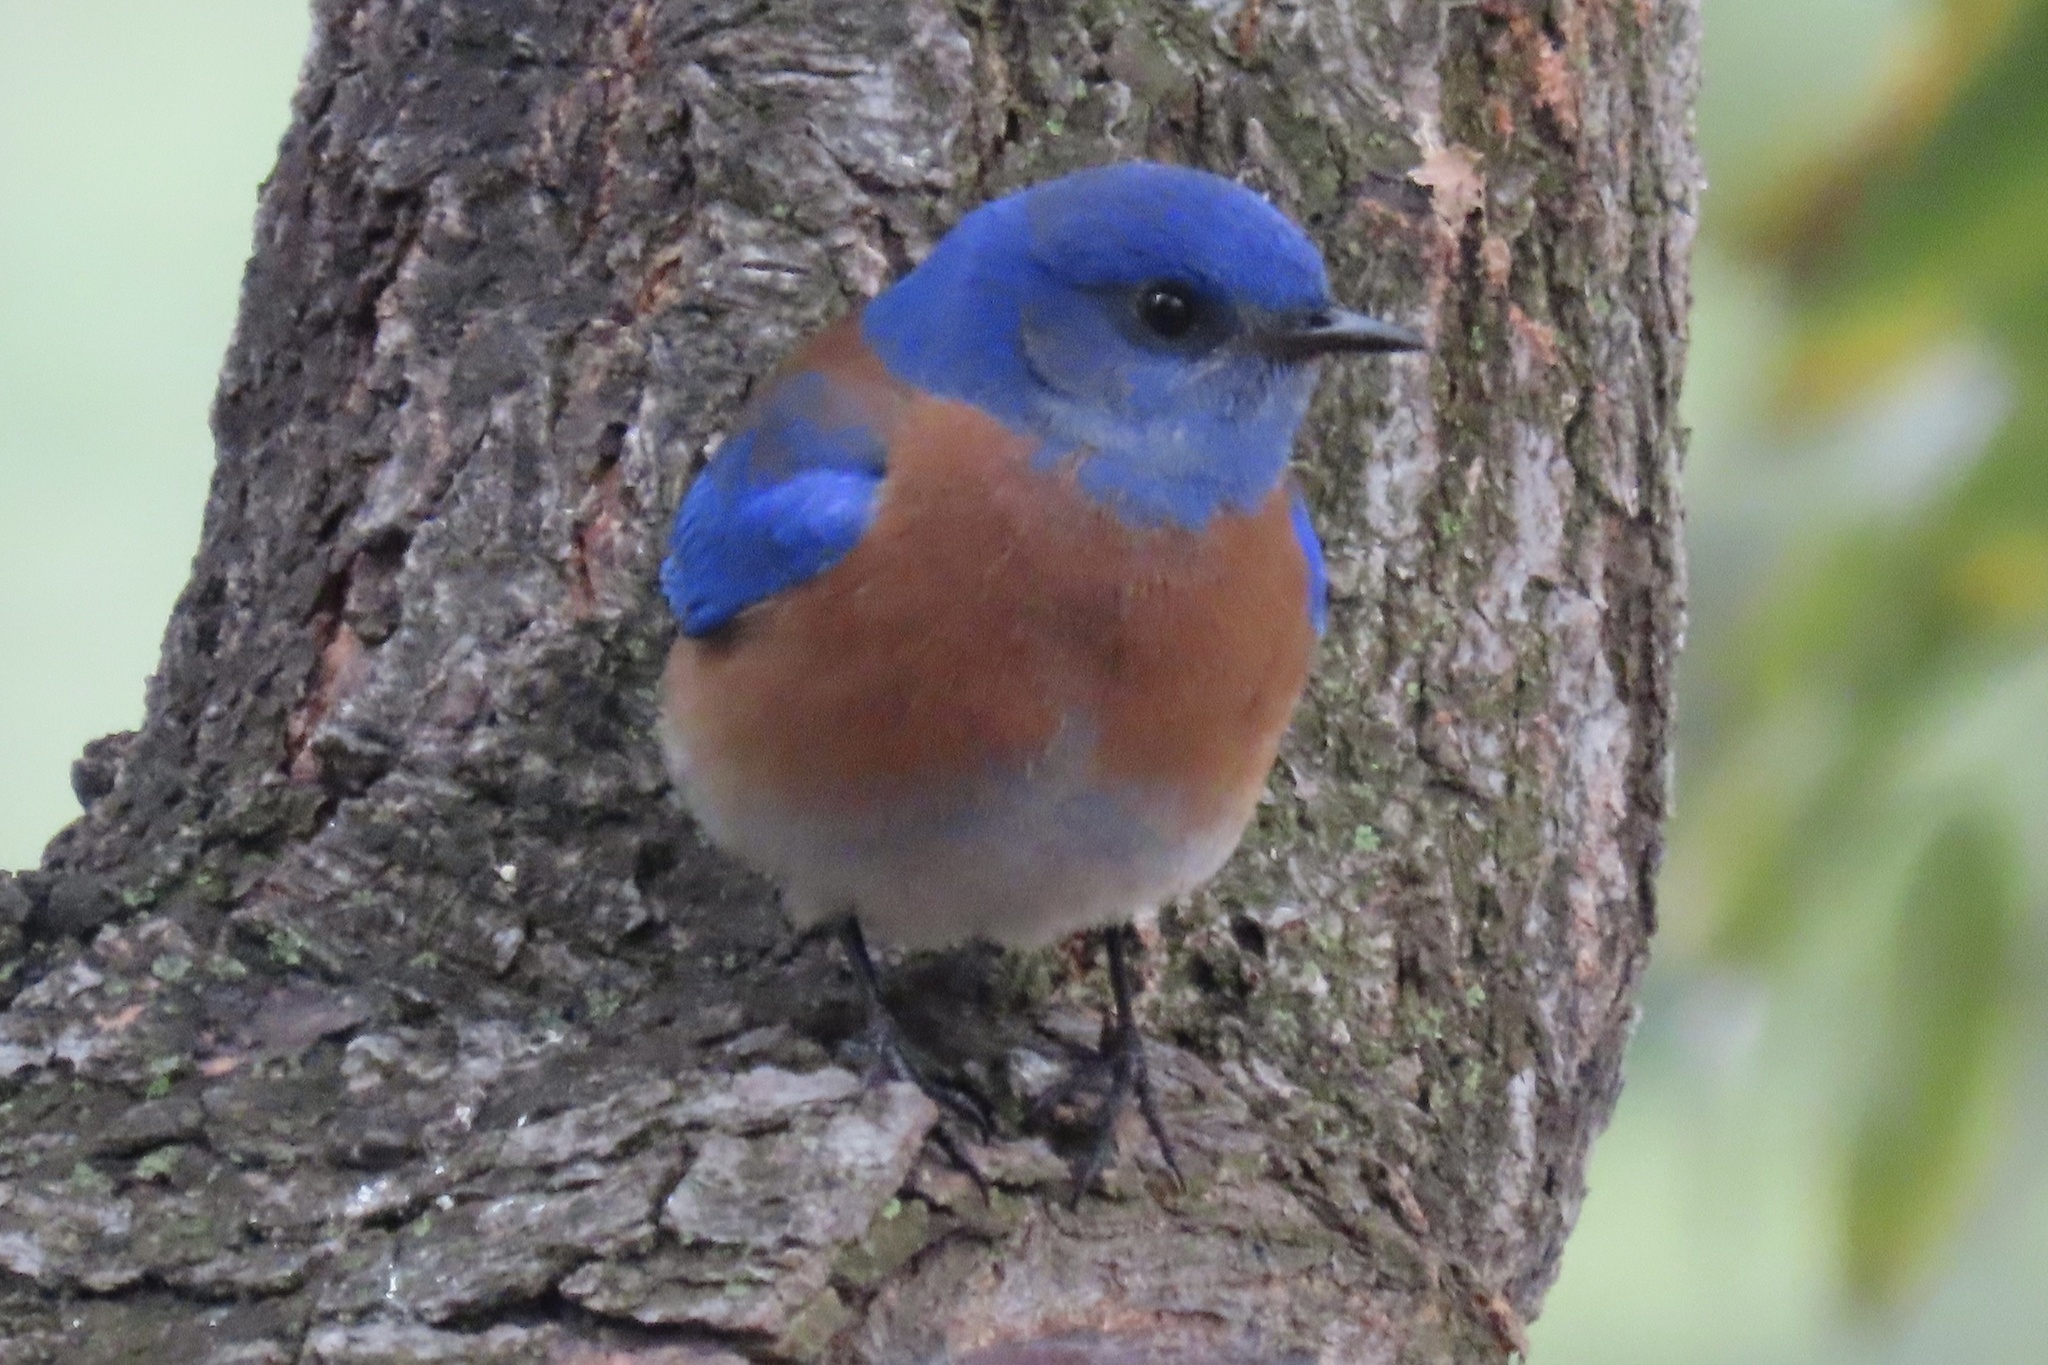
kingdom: Animalia
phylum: Chordata
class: Aves
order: Passeriformes
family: Turdidae
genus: Sialia
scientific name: Sialia mexicana
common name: Western bluebird
